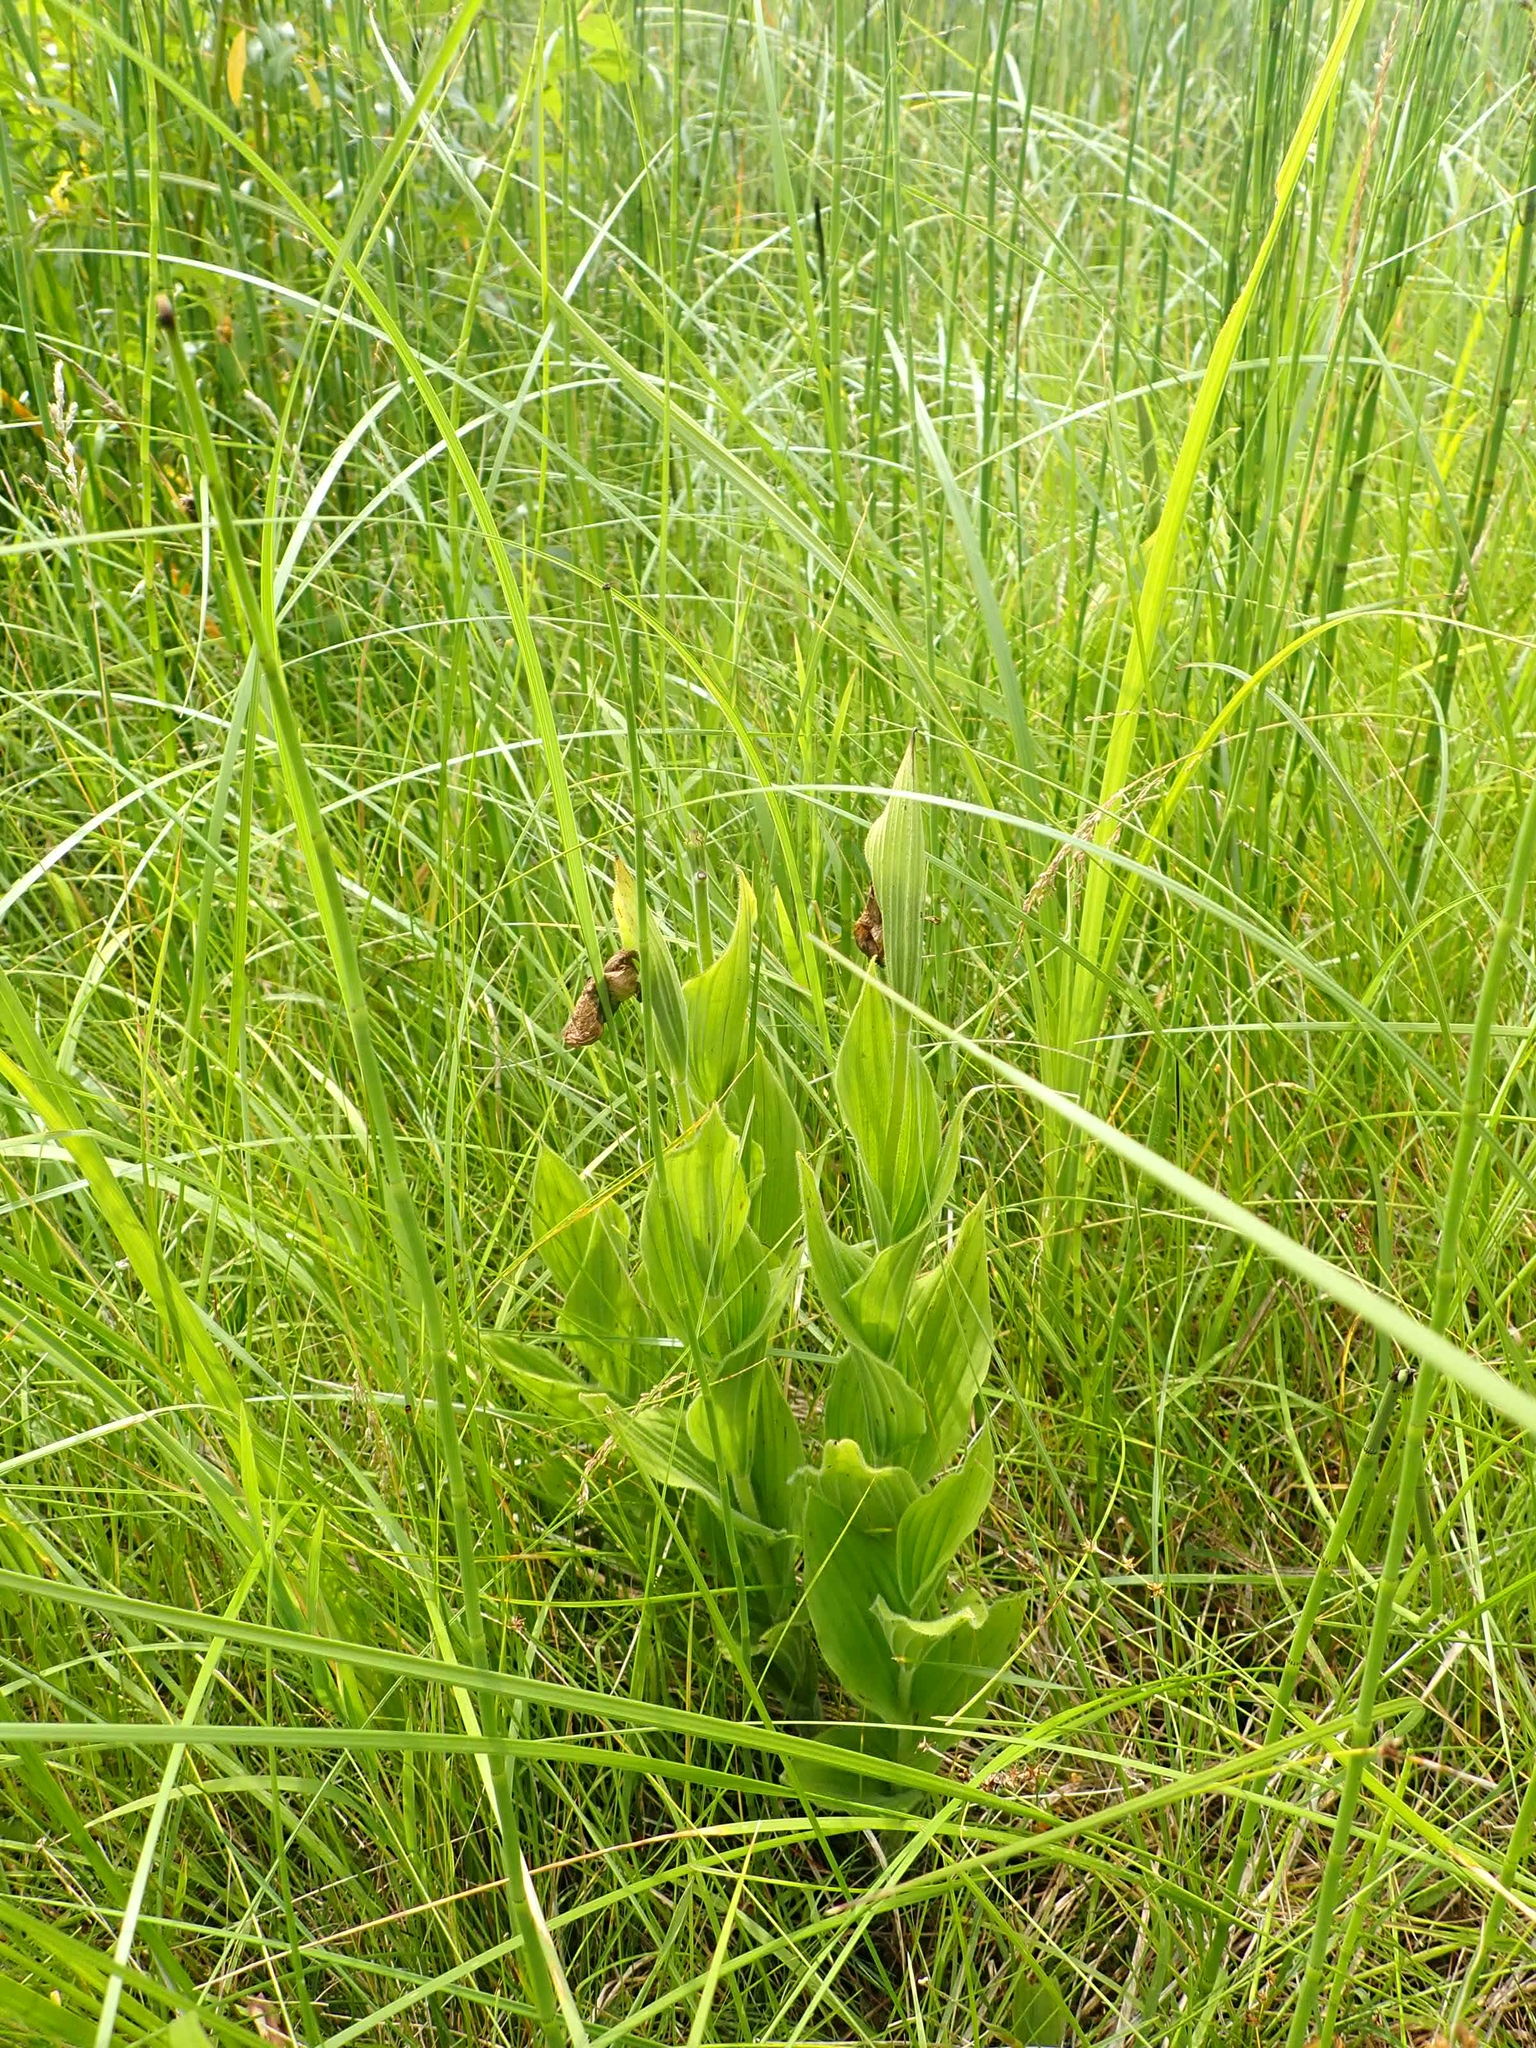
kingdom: Plantae
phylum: Tracheophyta
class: Liliopsida
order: Asparagales
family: Orchidaceae
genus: Cypripedium
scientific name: Cypripedium reginae
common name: Queen lady's-slipper
